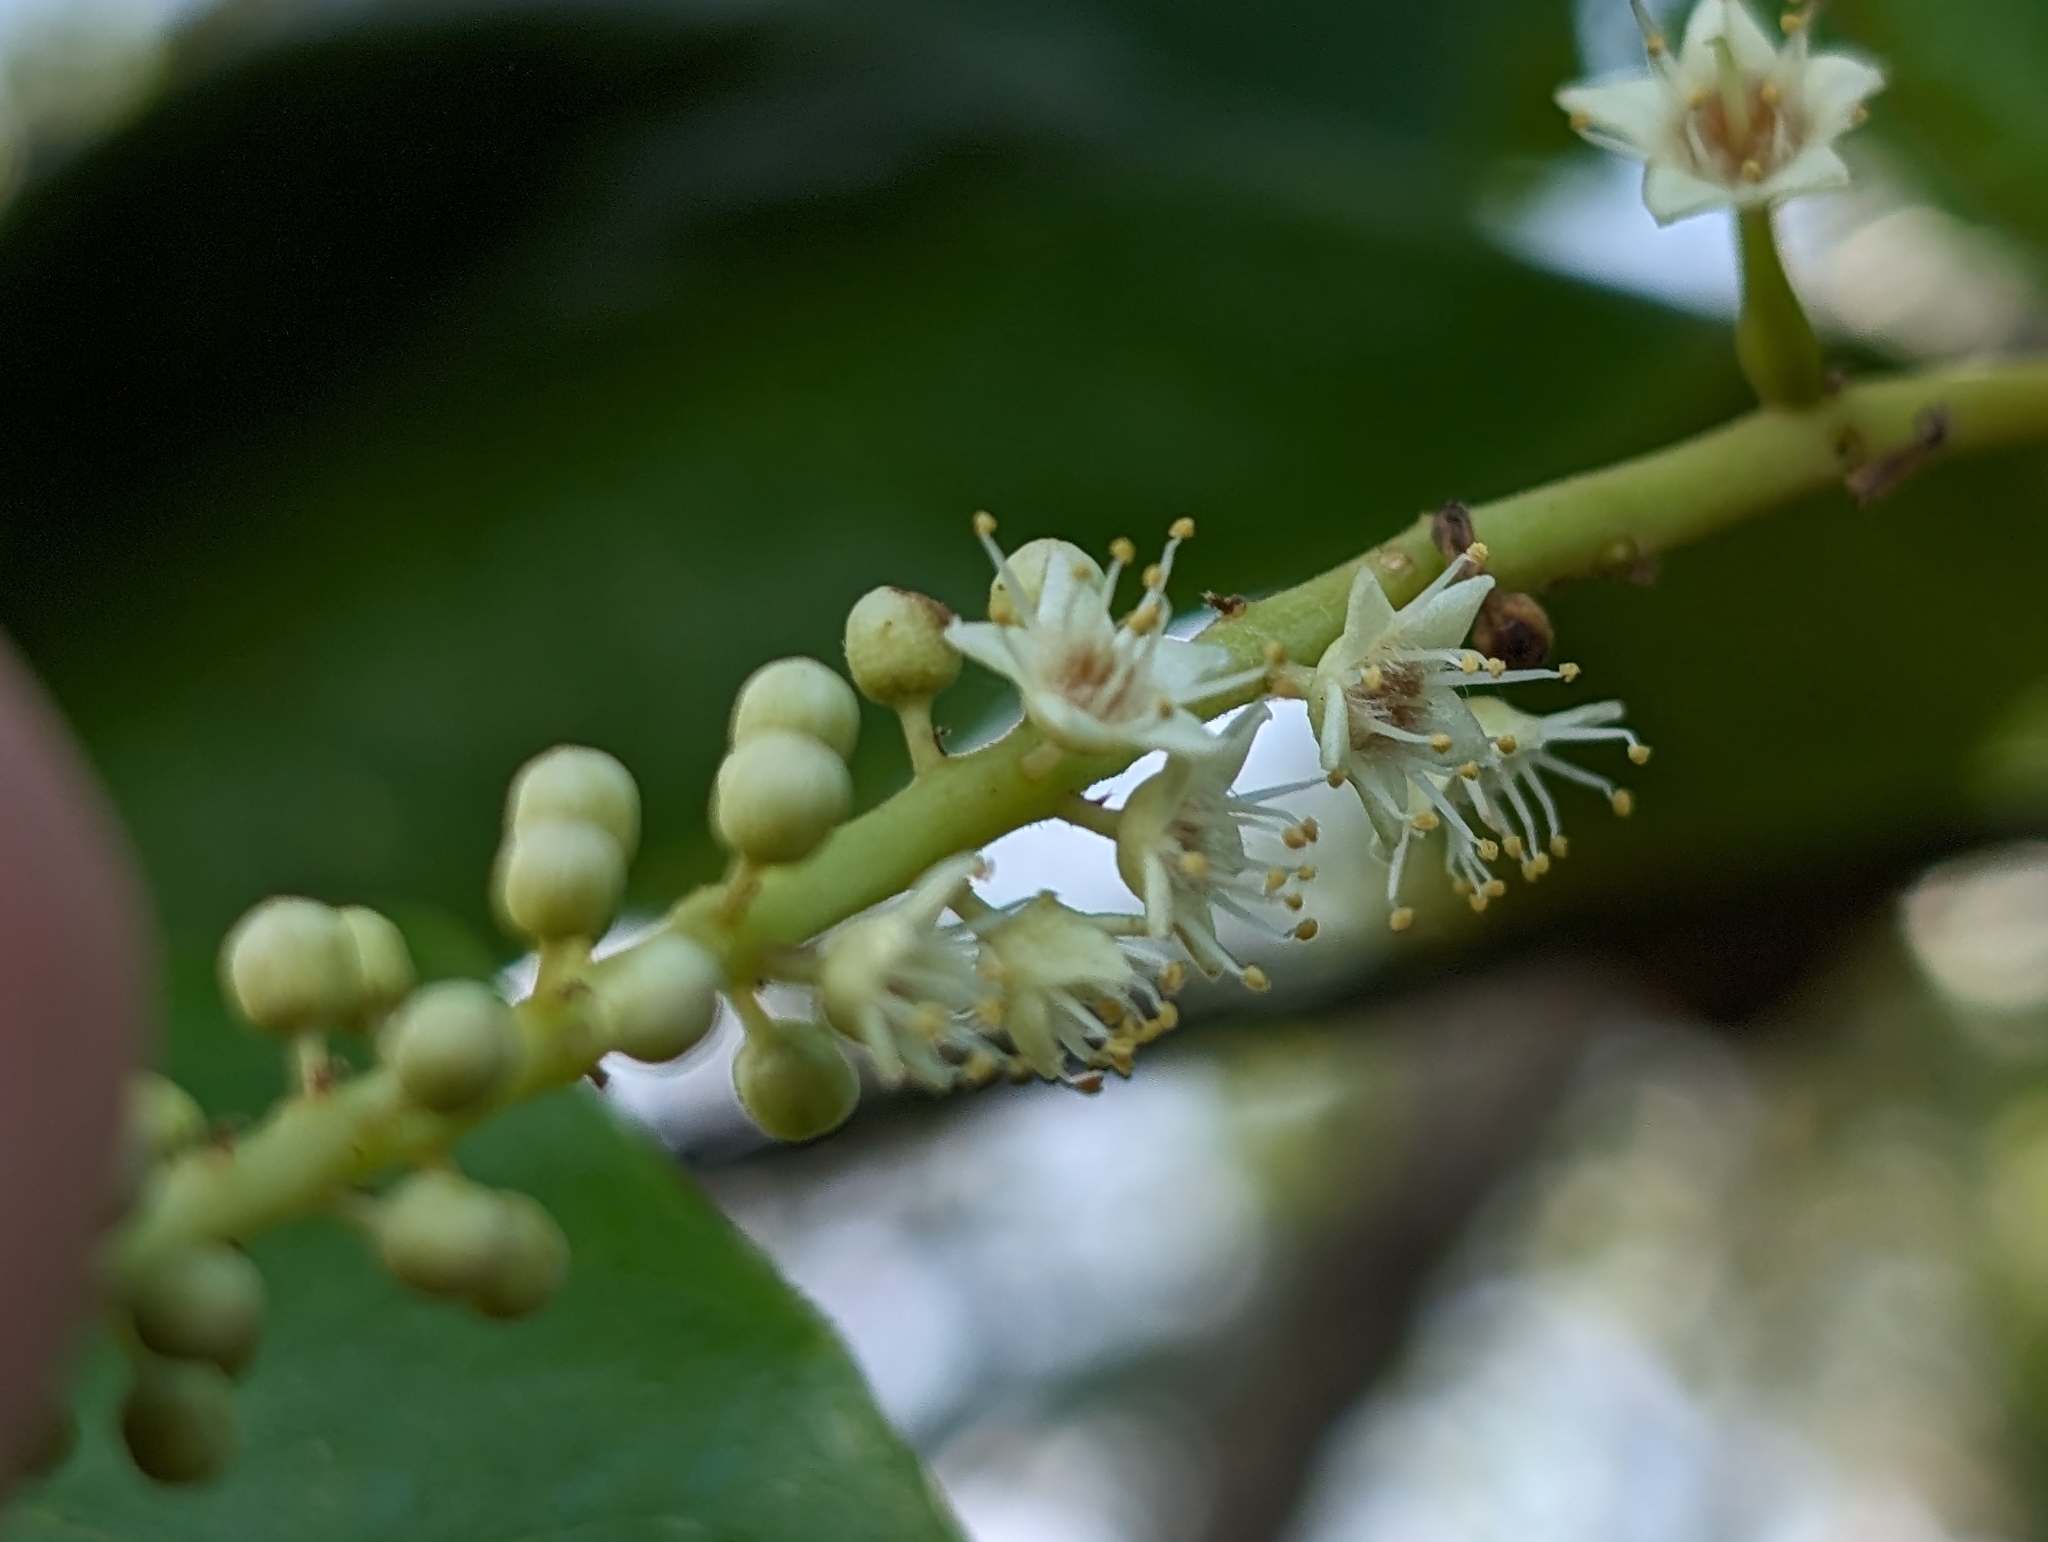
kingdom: Plantae
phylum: Tracheophyta
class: Magnoliopsida
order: Myrtales
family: Combretaceae
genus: Terminalia
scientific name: Terminalia catappa
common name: Tropical almond
